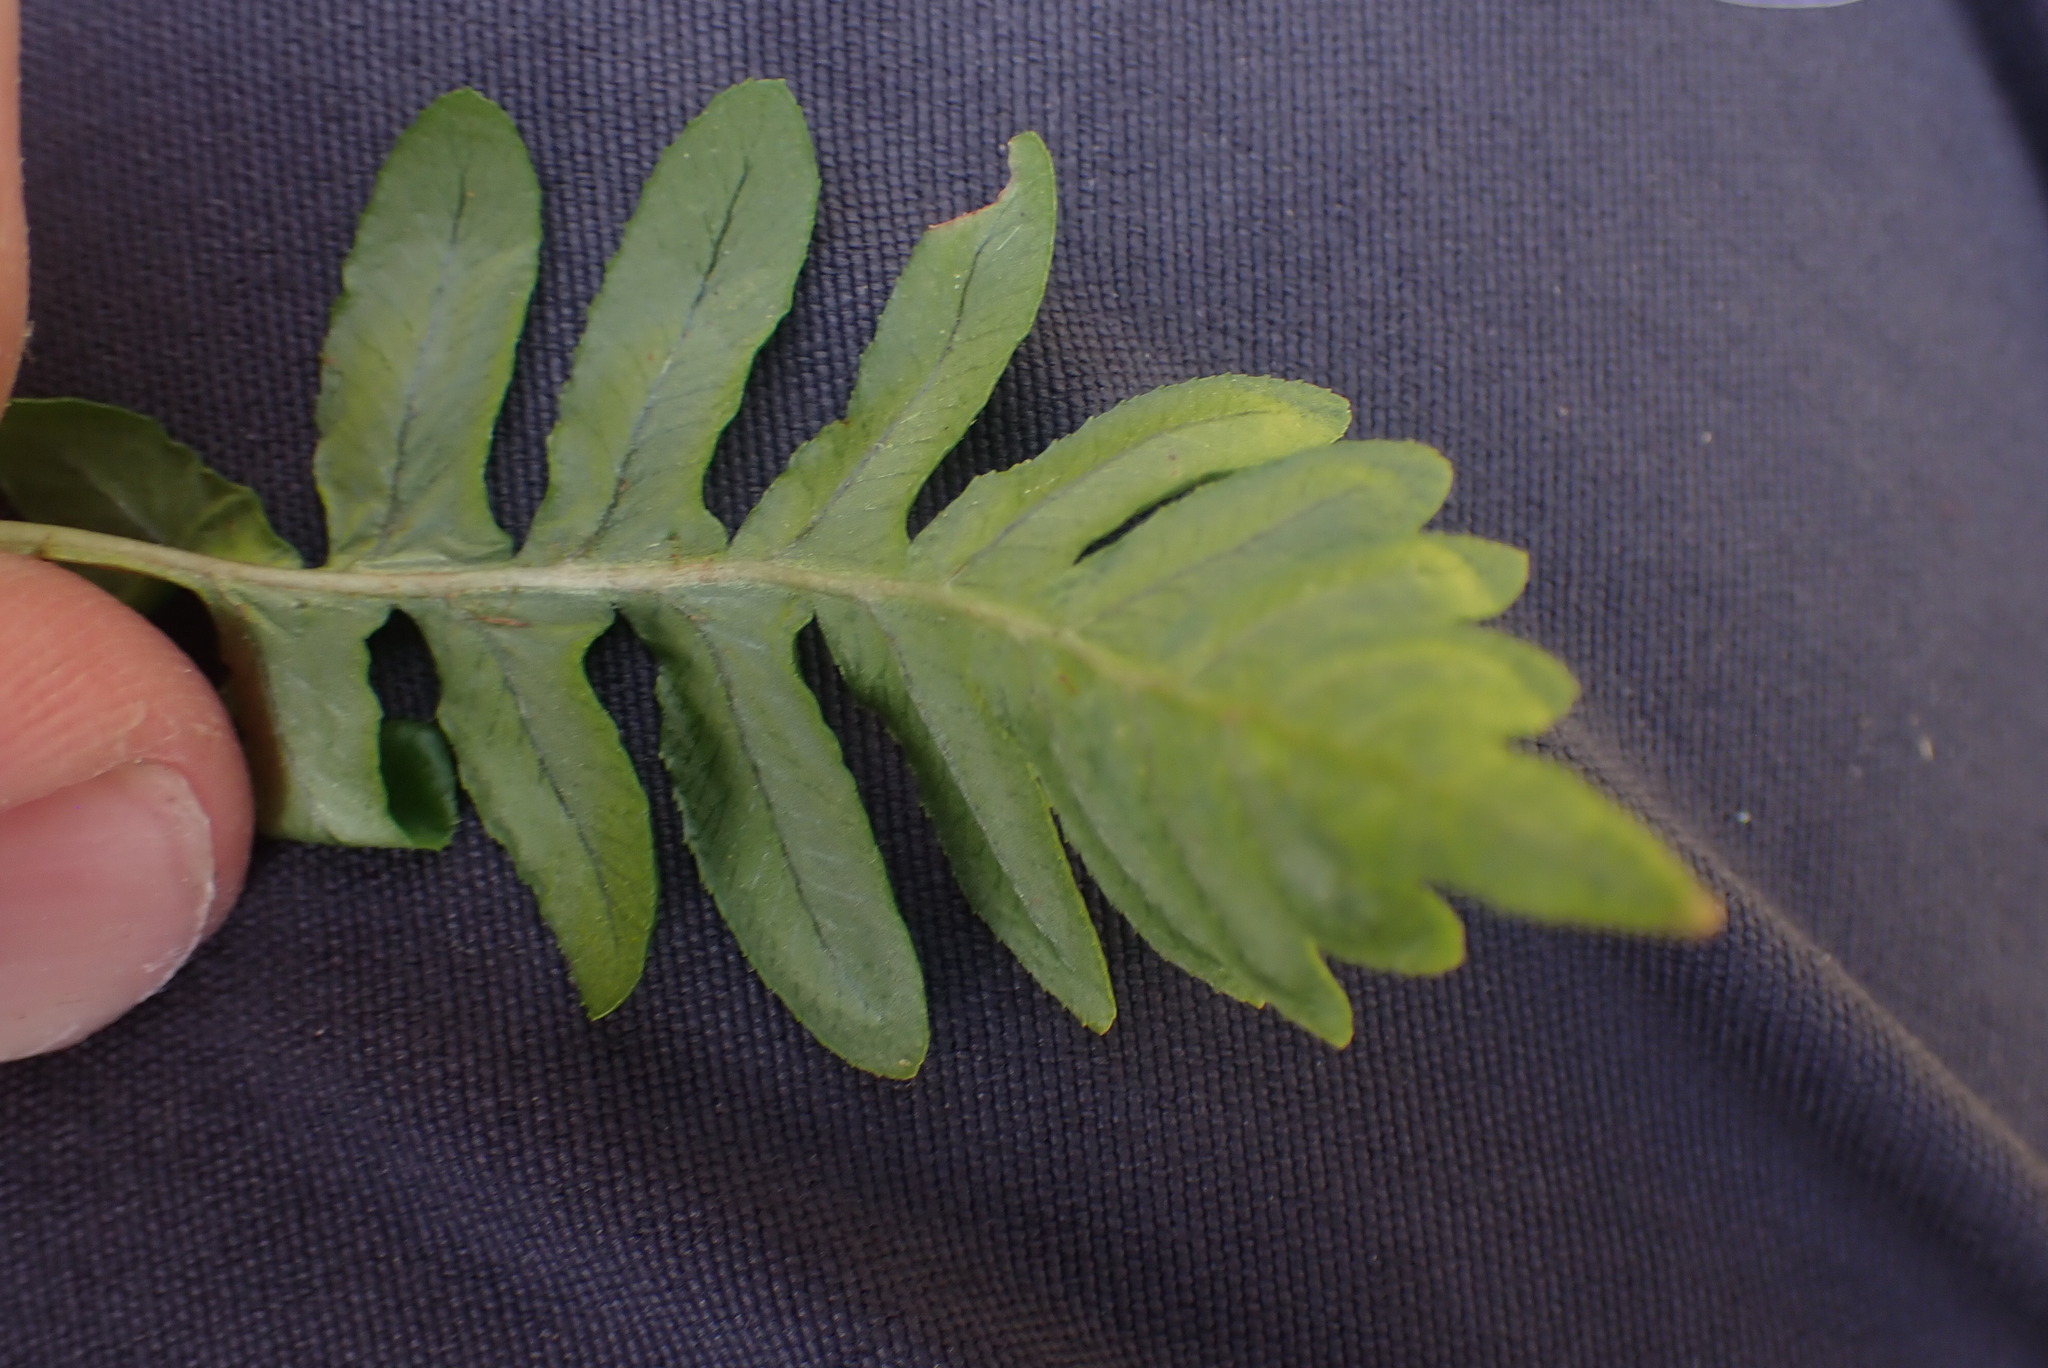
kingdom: Plantae
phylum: Tracheophyta
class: Polypodiopsida
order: Polypodiales
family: Polypodiaceae
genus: Polypodium
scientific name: Polypodium glycyrrhiza
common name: Licorice fern
